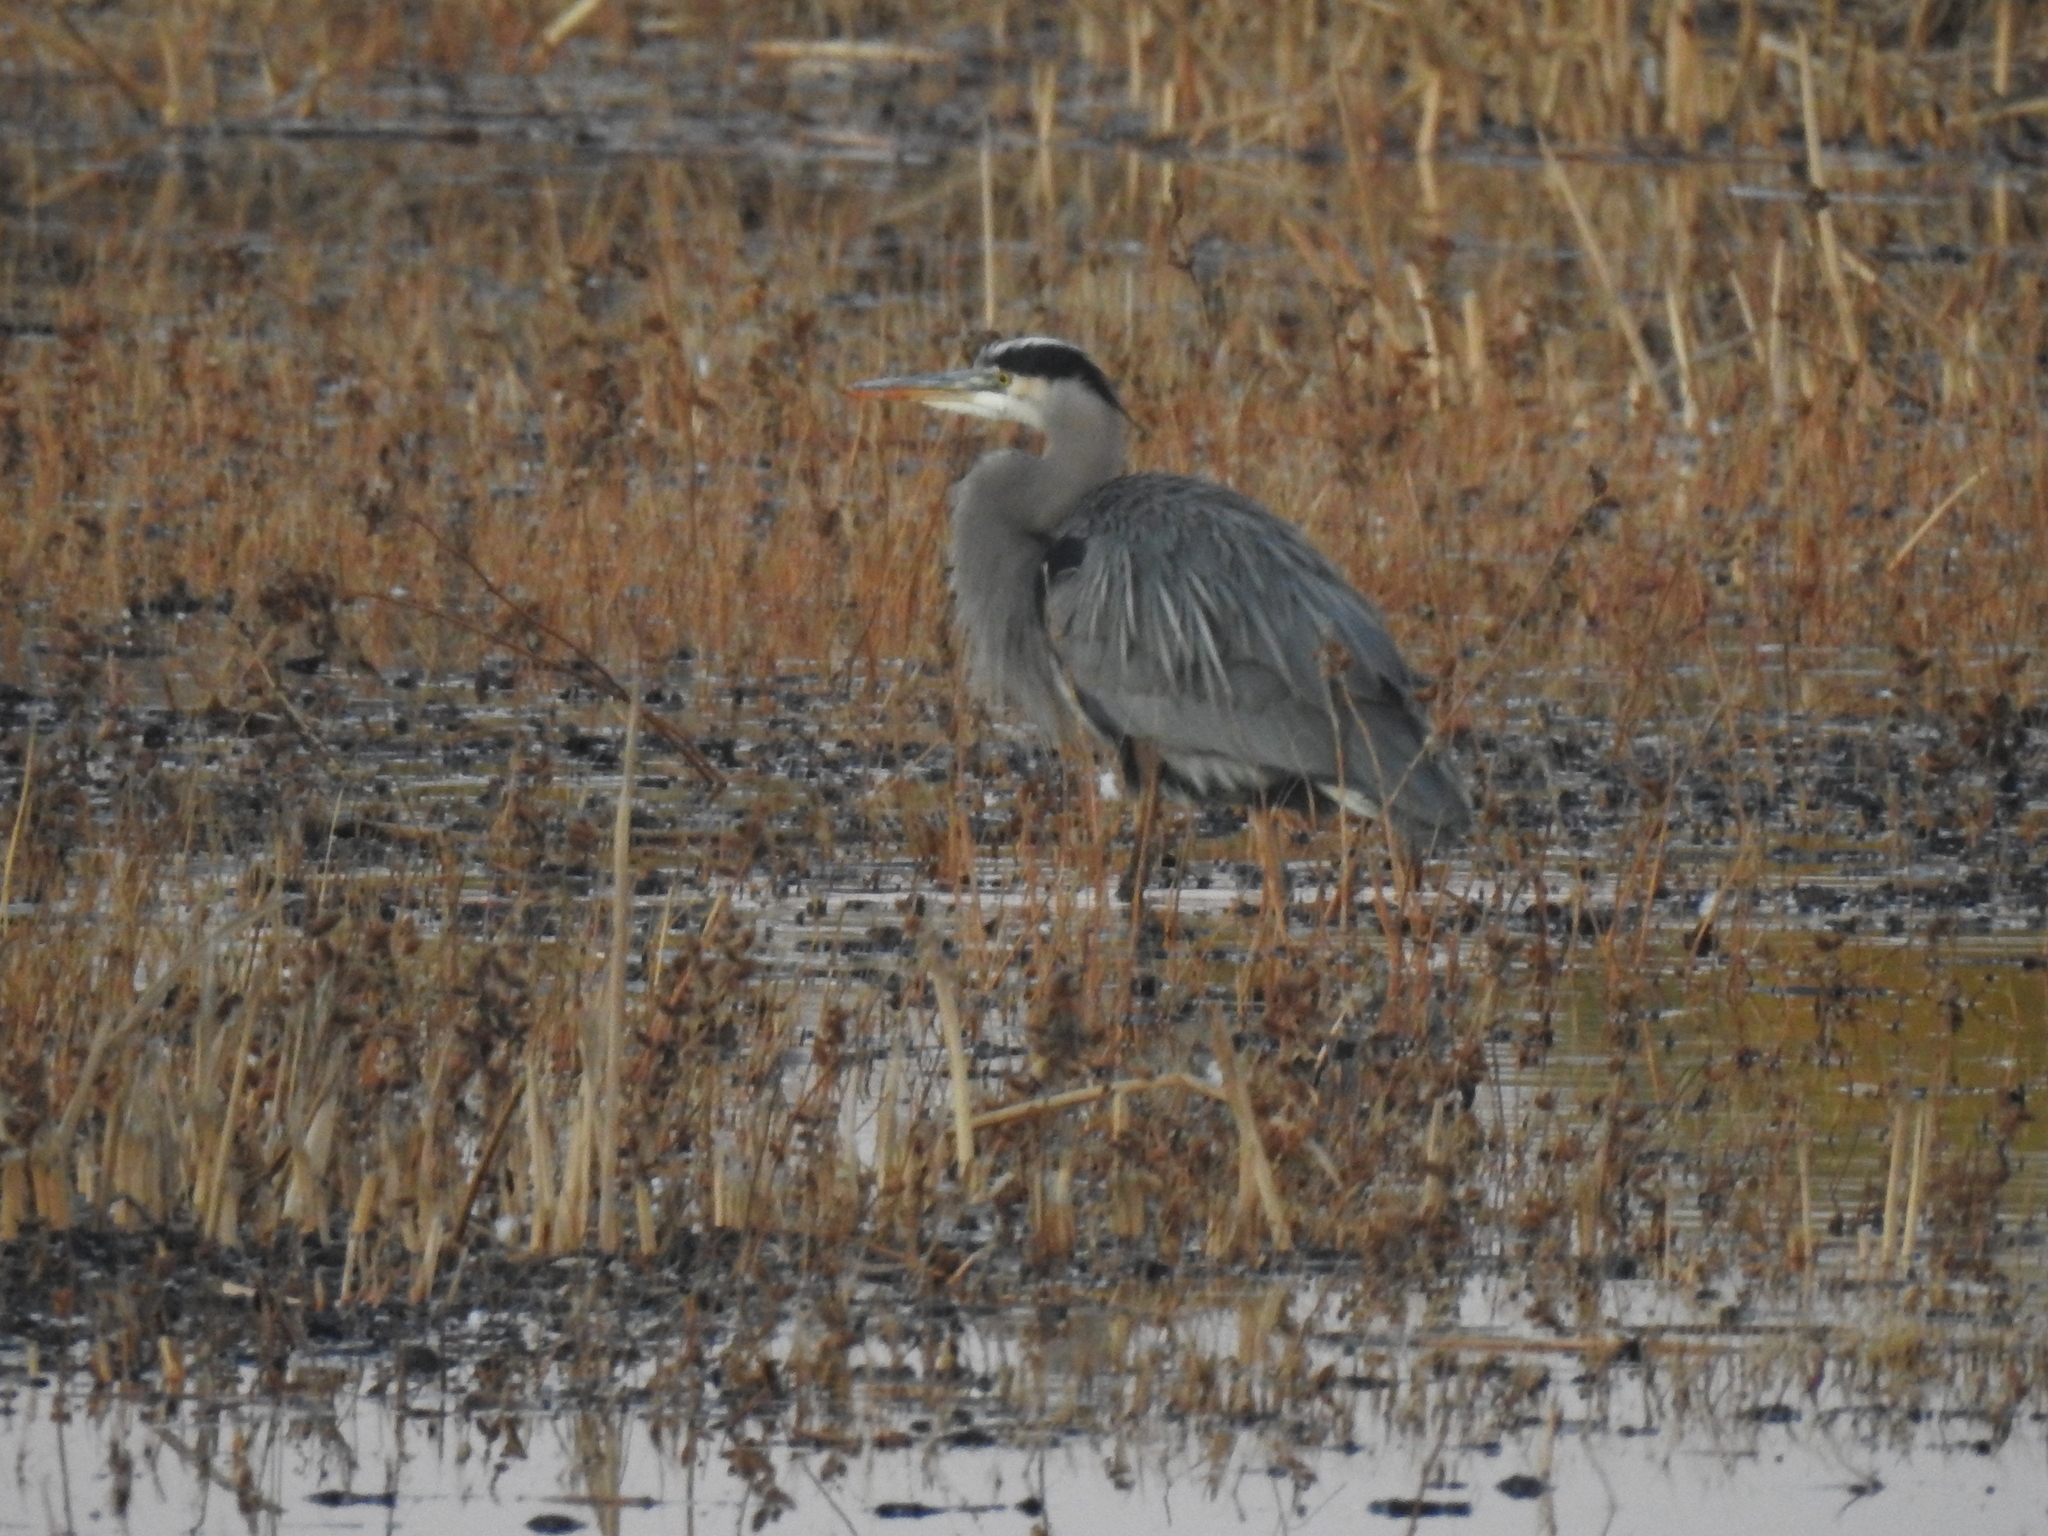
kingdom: Animalia
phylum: Chordata
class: Aves
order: Pelecaniformes
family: Ardeidae
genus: Ardea
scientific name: Ardea herodias
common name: Great blue heron
